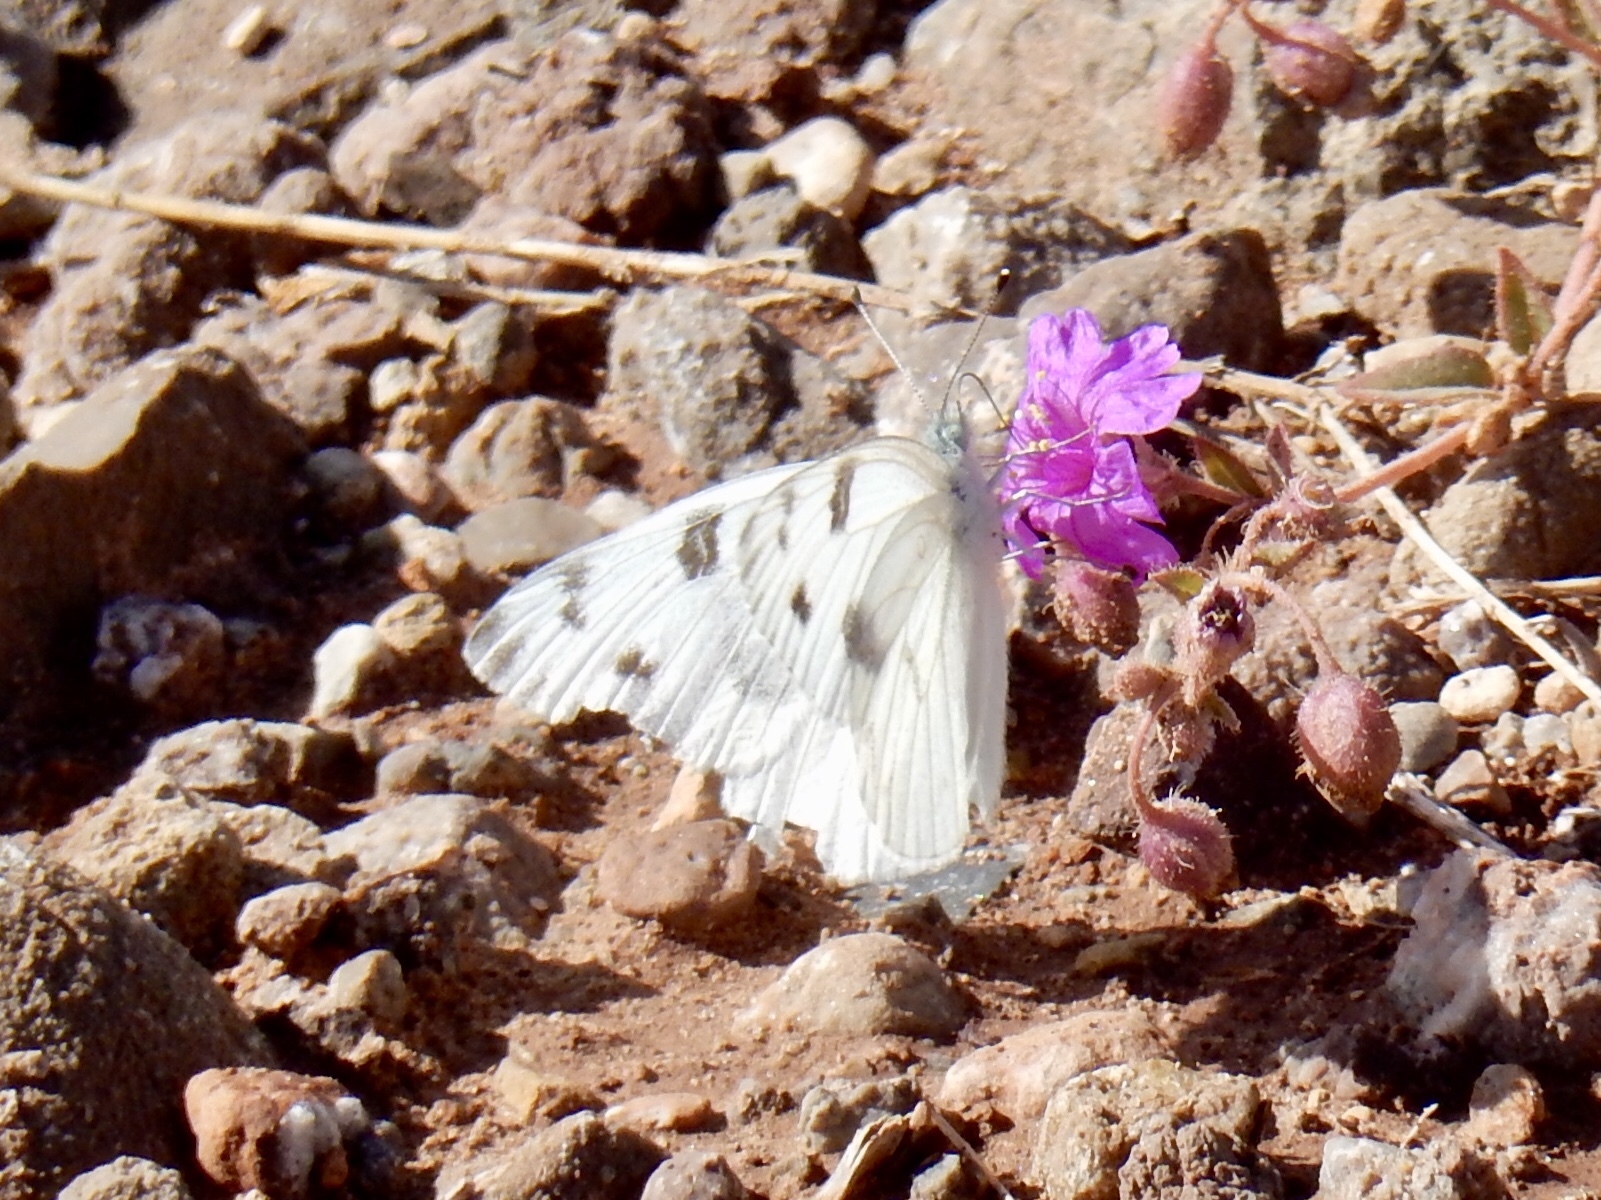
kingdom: Animalia
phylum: Arthropoda
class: Insecta
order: Lepidoptera
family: Pieridae
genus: Pontia
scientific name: Pontia protodice
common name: Checkered white
